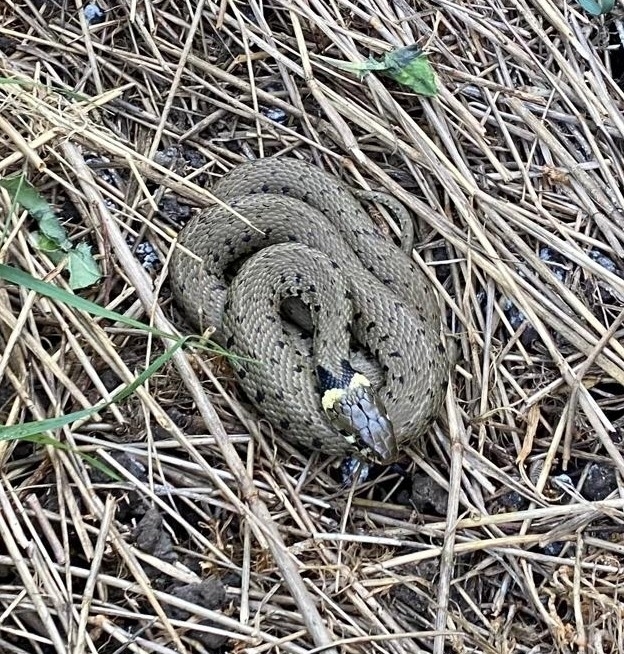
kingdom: Animalia
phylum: Chordata
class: Squamata
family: Colubridae
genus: Natrix
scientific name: Natrix helvetica
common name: Banded grass snake
